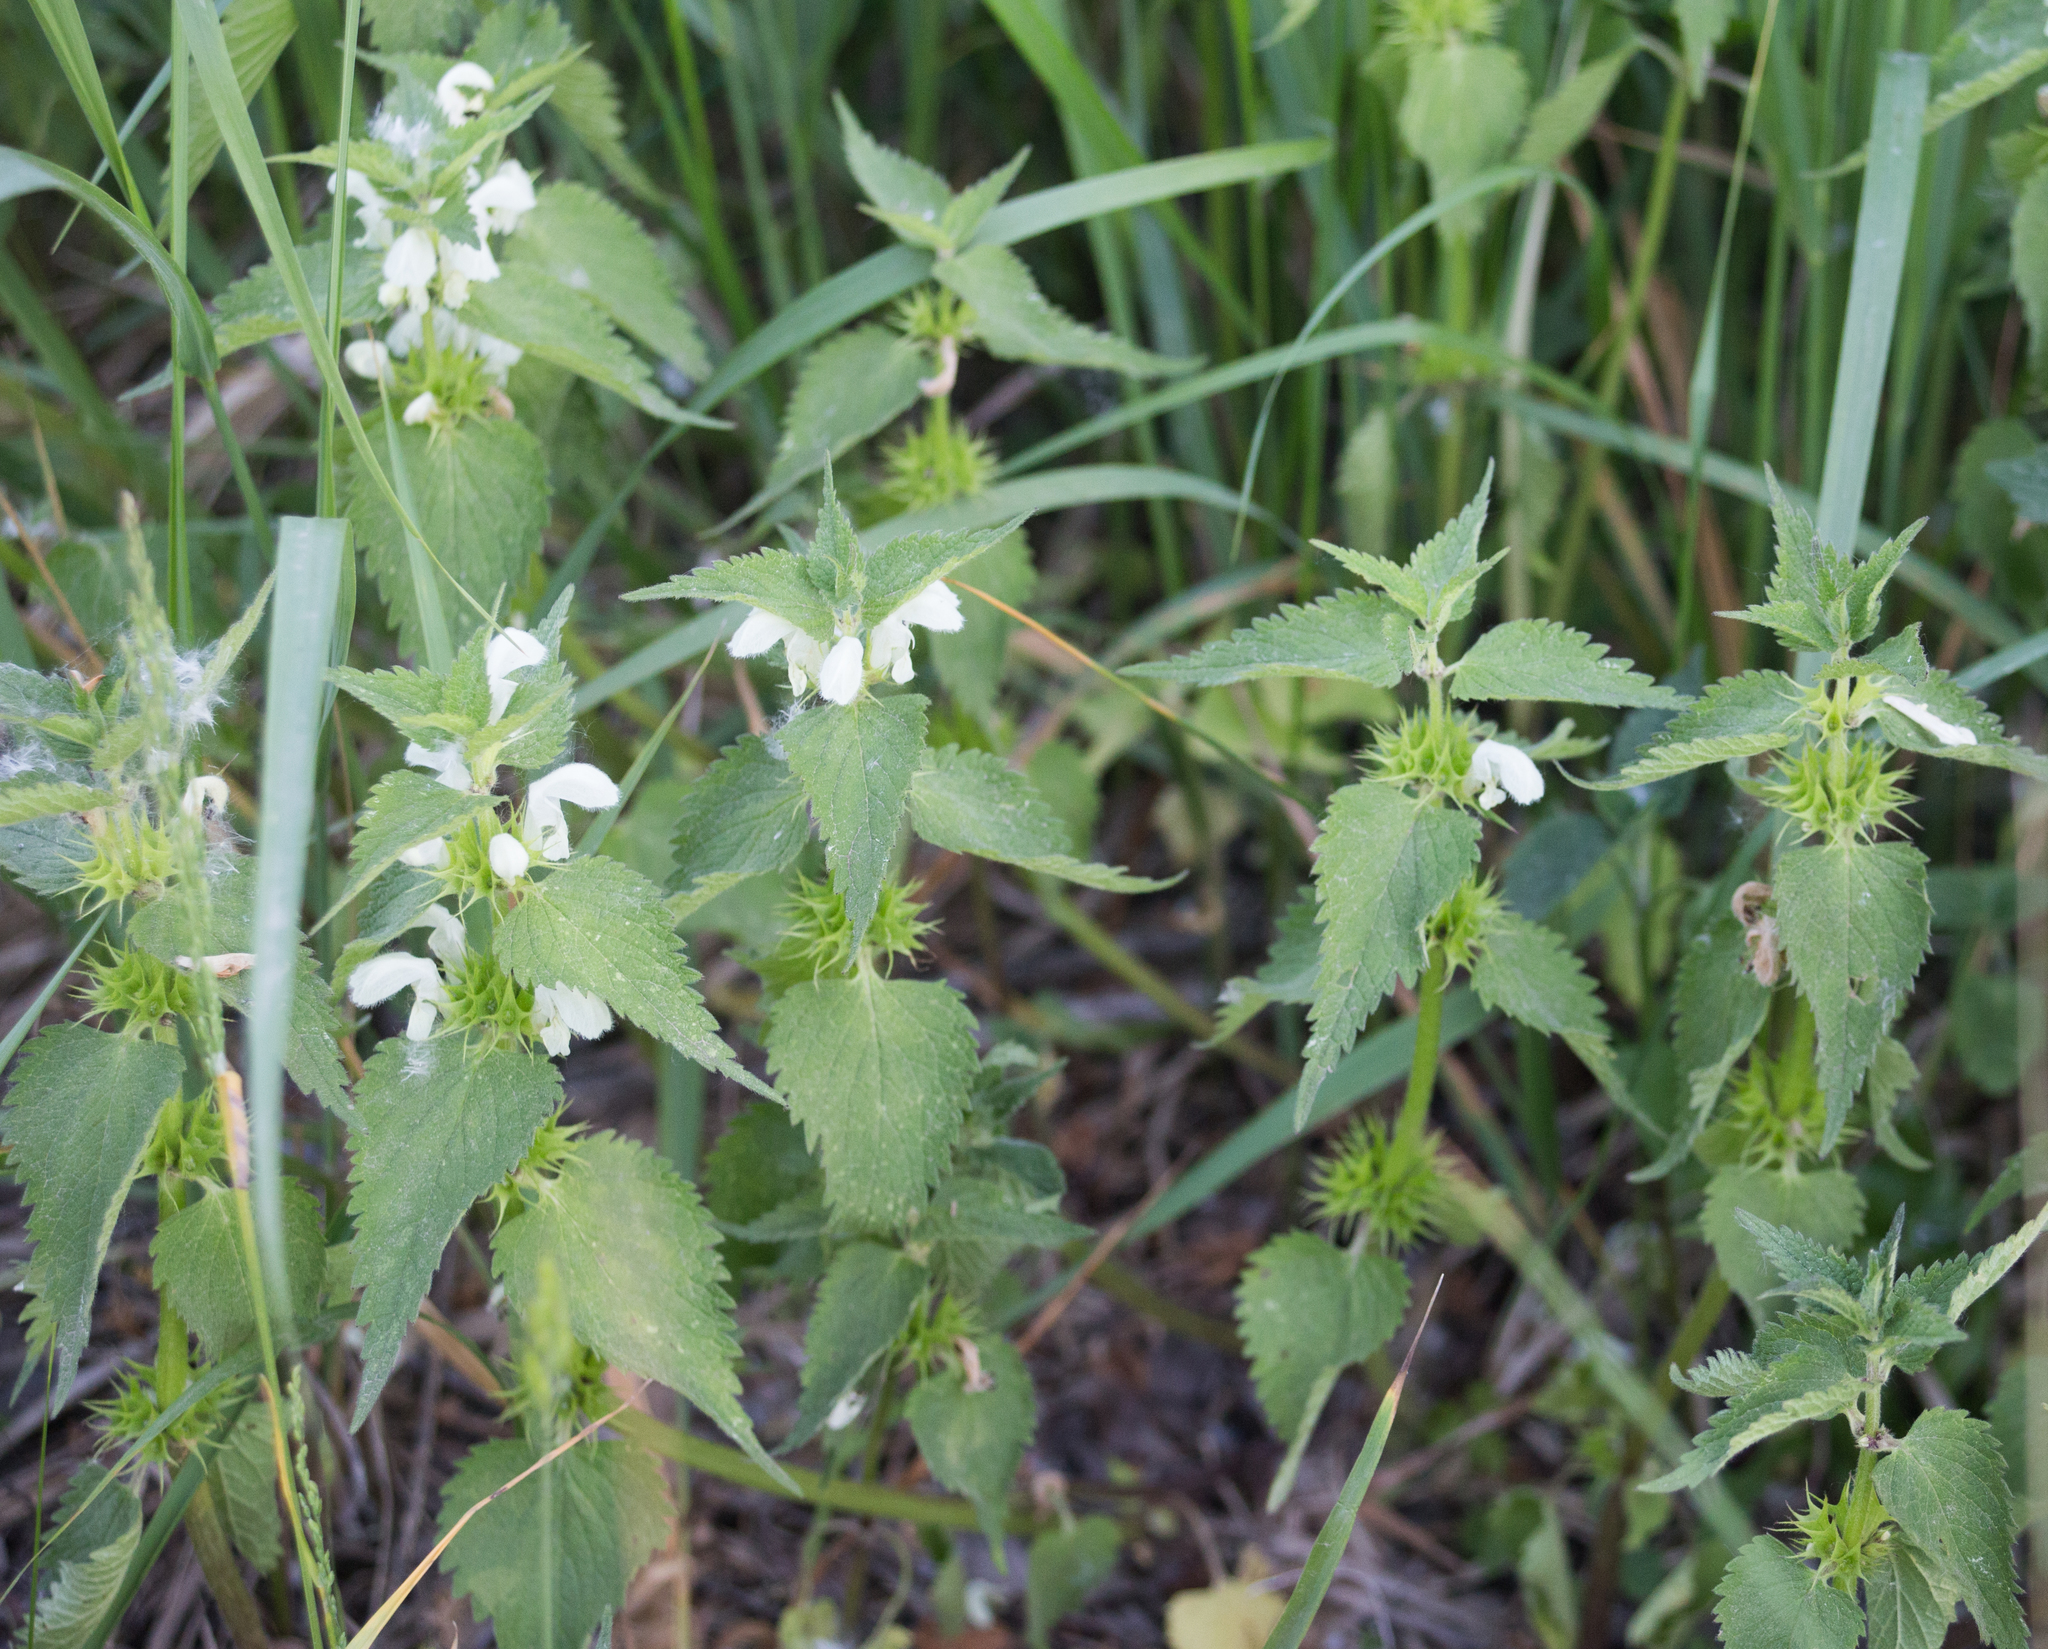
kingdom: Plantae
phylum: Tracheophyta
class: Magnoliopsida
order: Lamiales
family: Lamiaceae
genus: Lamium
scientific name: Lamium album
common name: White dead-nettle
